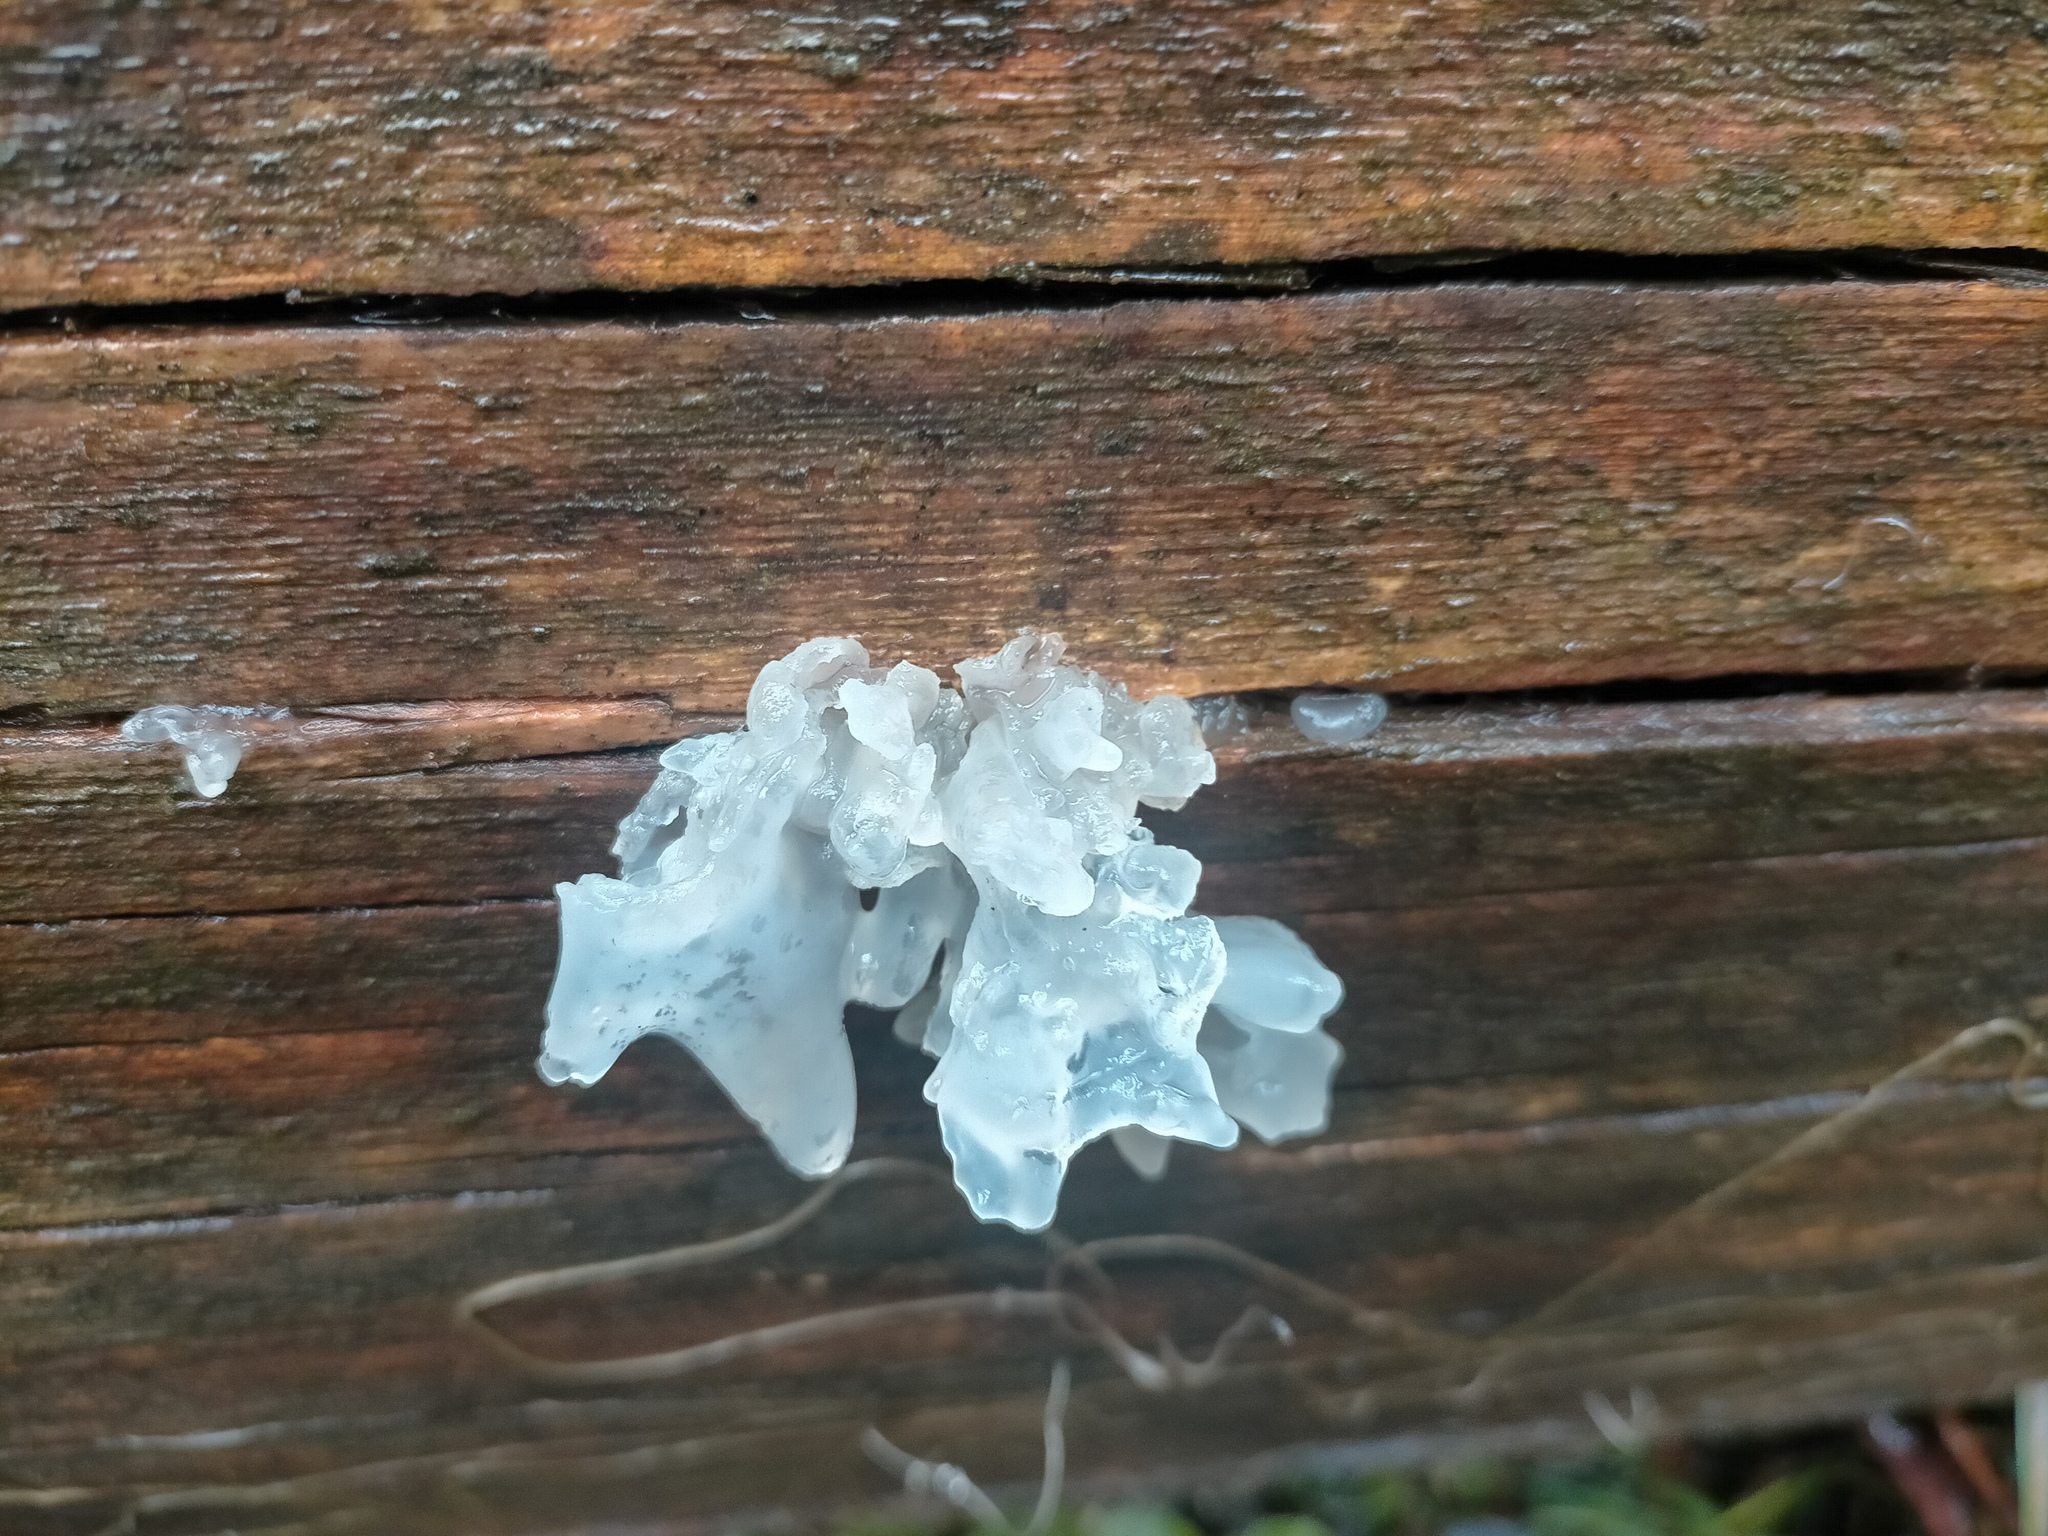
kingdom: Fungi
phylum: Basidiomycota
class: Tremellomycetes
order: Tremellales
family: Tremellaceae
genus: Tremella
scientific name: Tremella fuciformis
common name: Snow fungus
